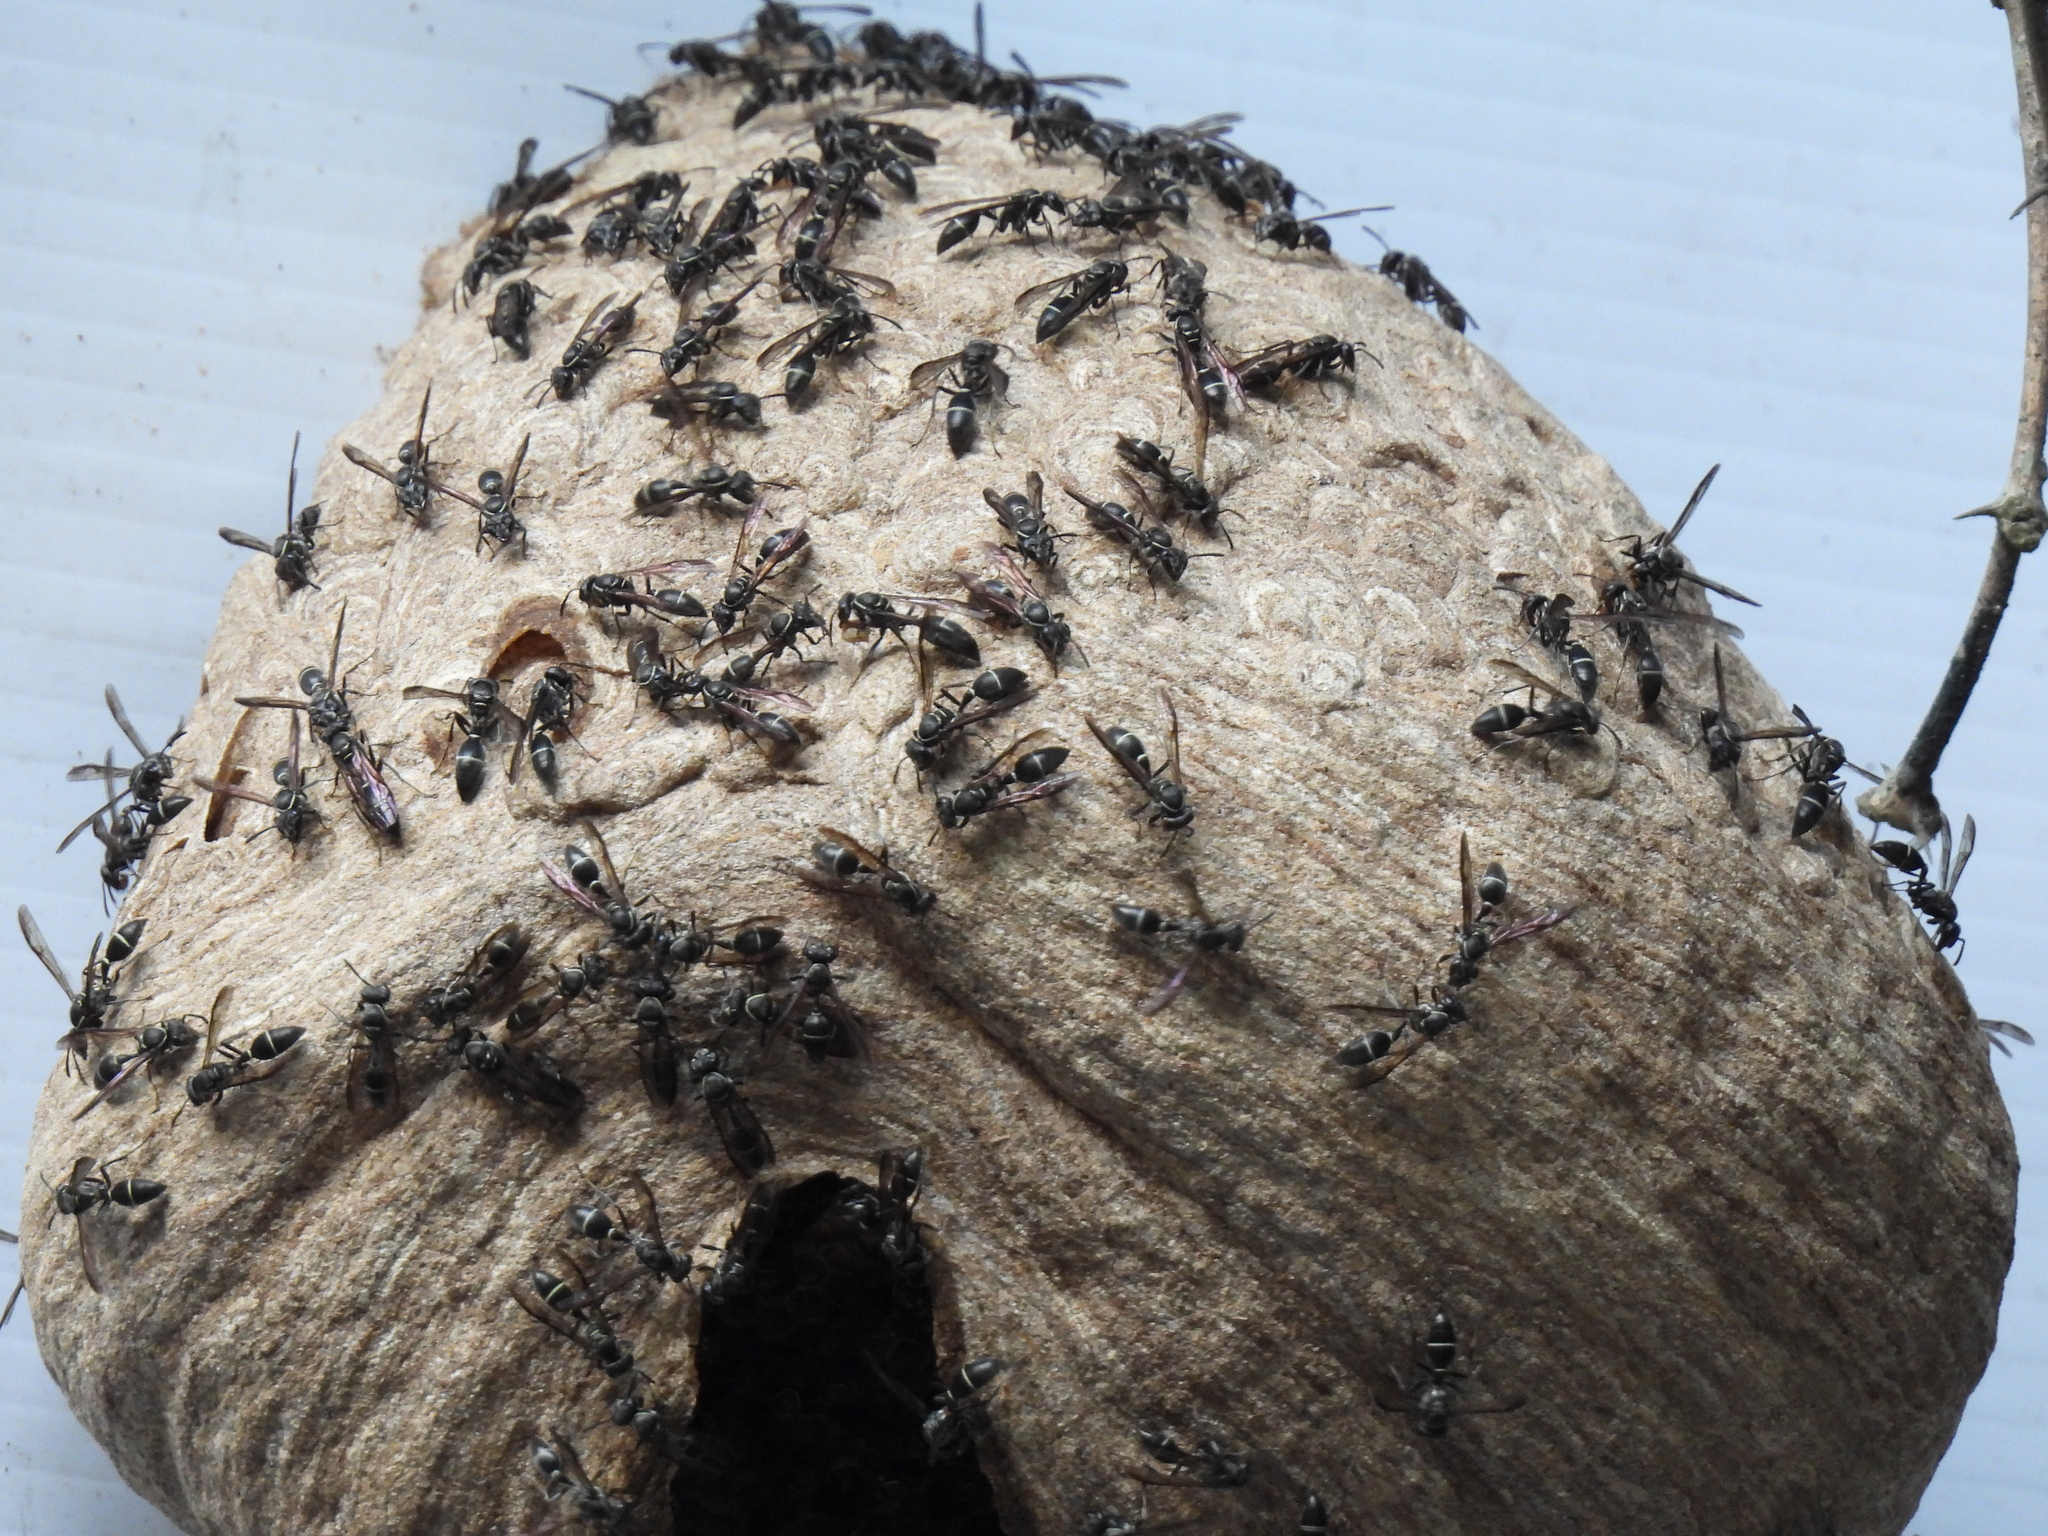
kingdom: Animalia
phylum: Arthropoda
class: Insecta
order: Hymenoptera
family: Eumenidae
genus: Polybia
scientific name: Polybia plebeja
